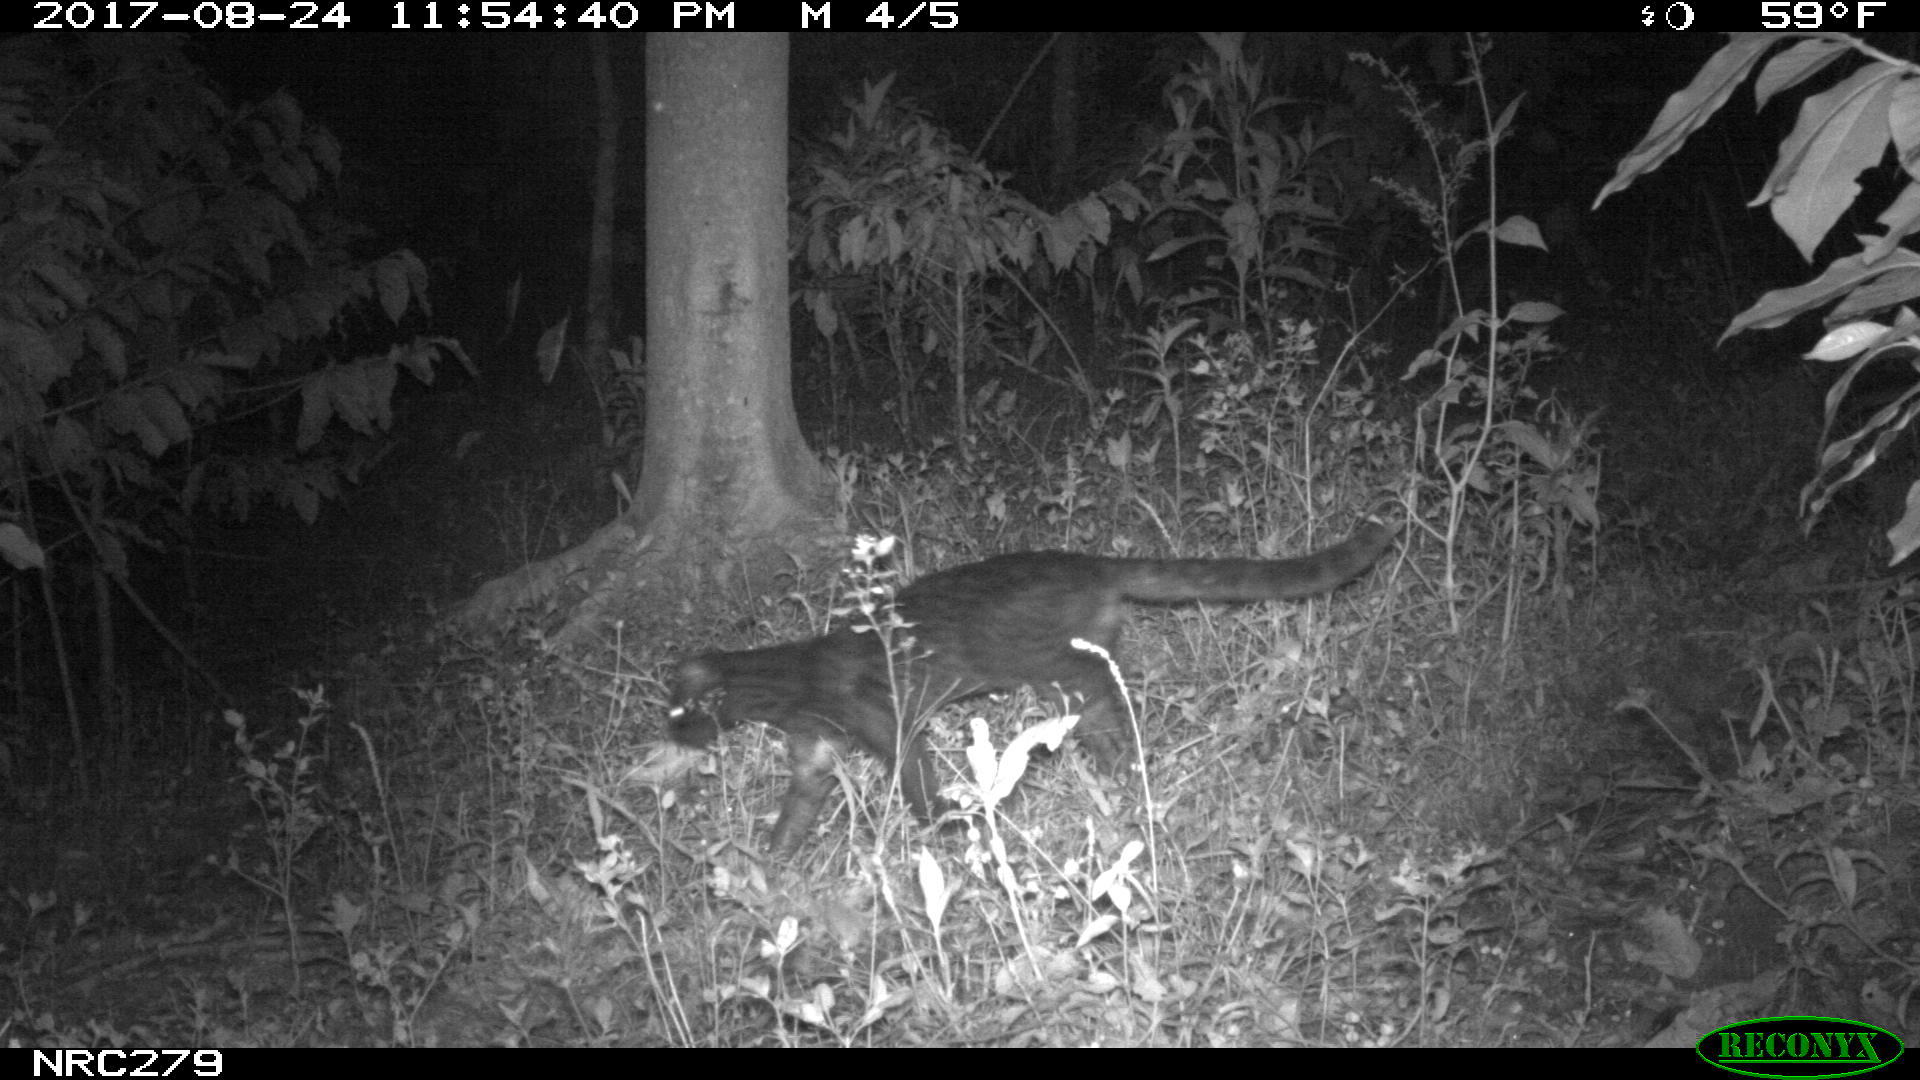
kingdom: Animalia
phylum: Chordata
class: Mammalia
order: Carnivora
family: Felidae
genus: Leopardus
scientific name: Leopardus tigrinus
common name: Oncilla
